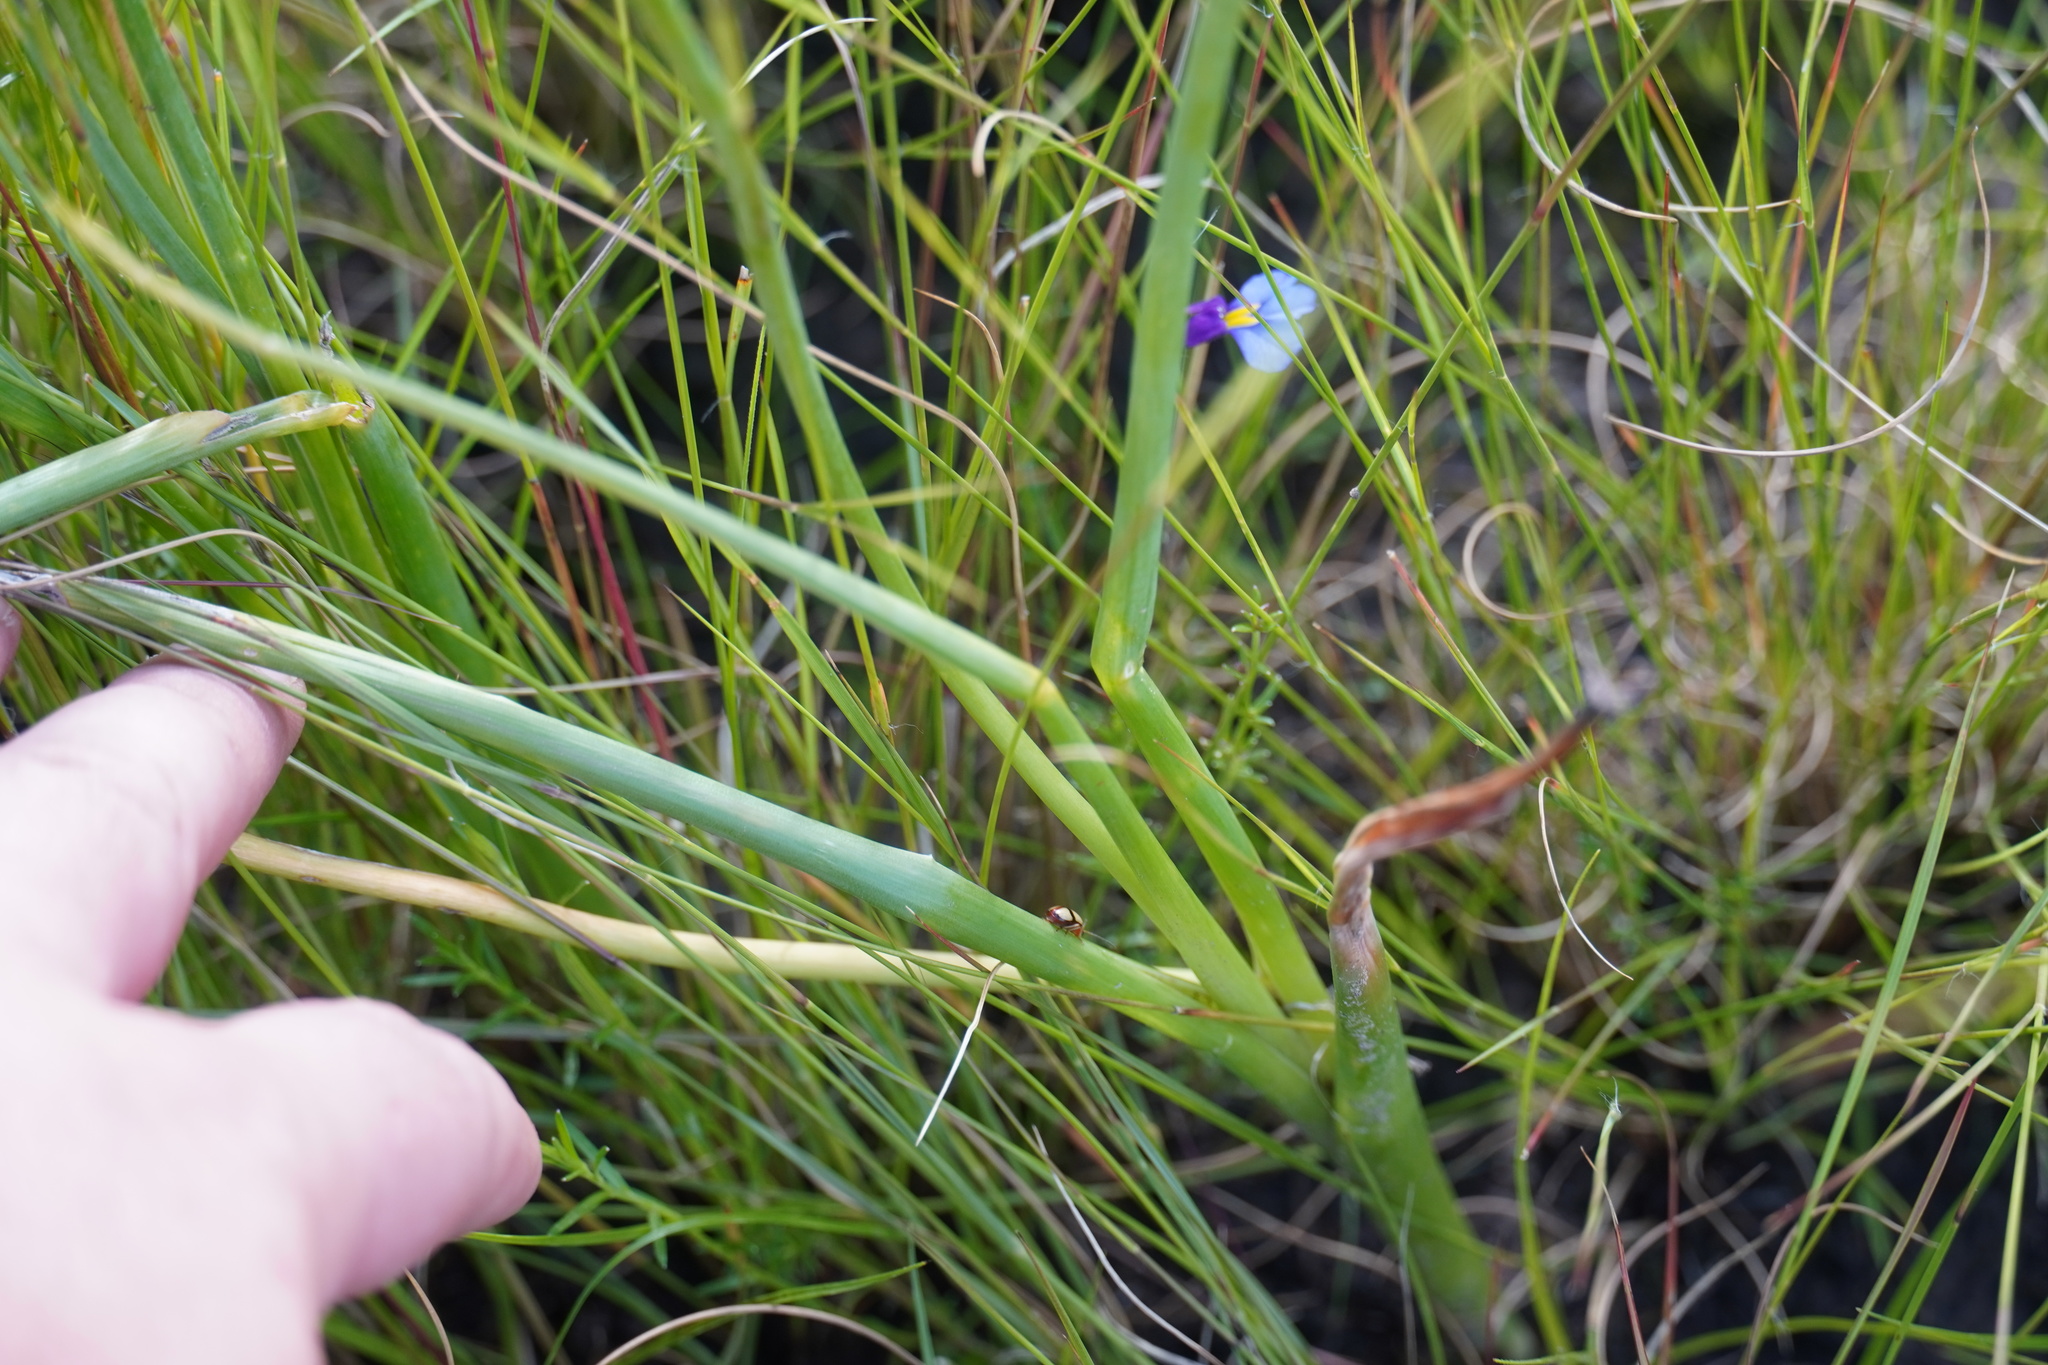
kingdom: Plantae
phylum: Tracheophyta
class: Liliopsida
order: Asparagales
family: Asparagaceae
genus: Albuca
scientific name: Albuca virens
